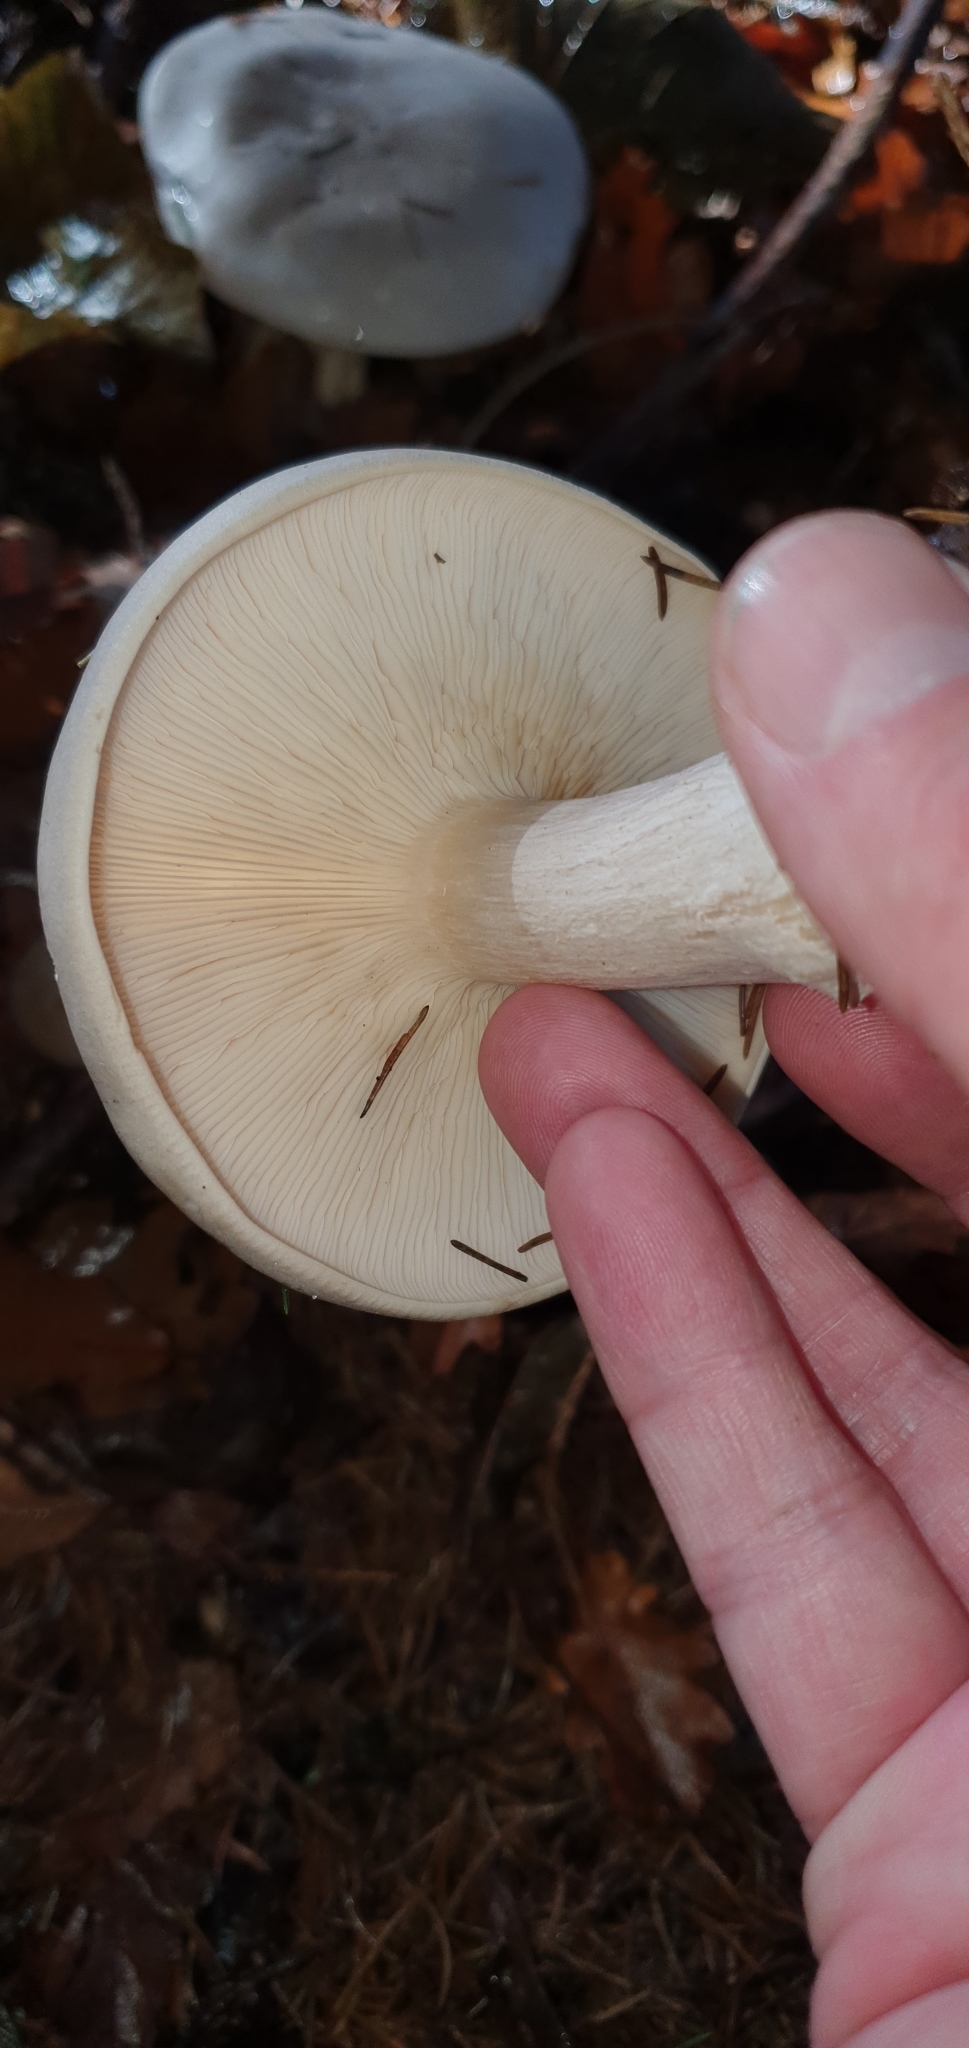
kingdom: Fungi
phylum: Basidiomycota
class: Agaricomycetes
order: Agaricales
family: Tricholomataceae
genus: Clitocybe
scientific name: Clitocybe nebularis
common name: Clouded agaric
